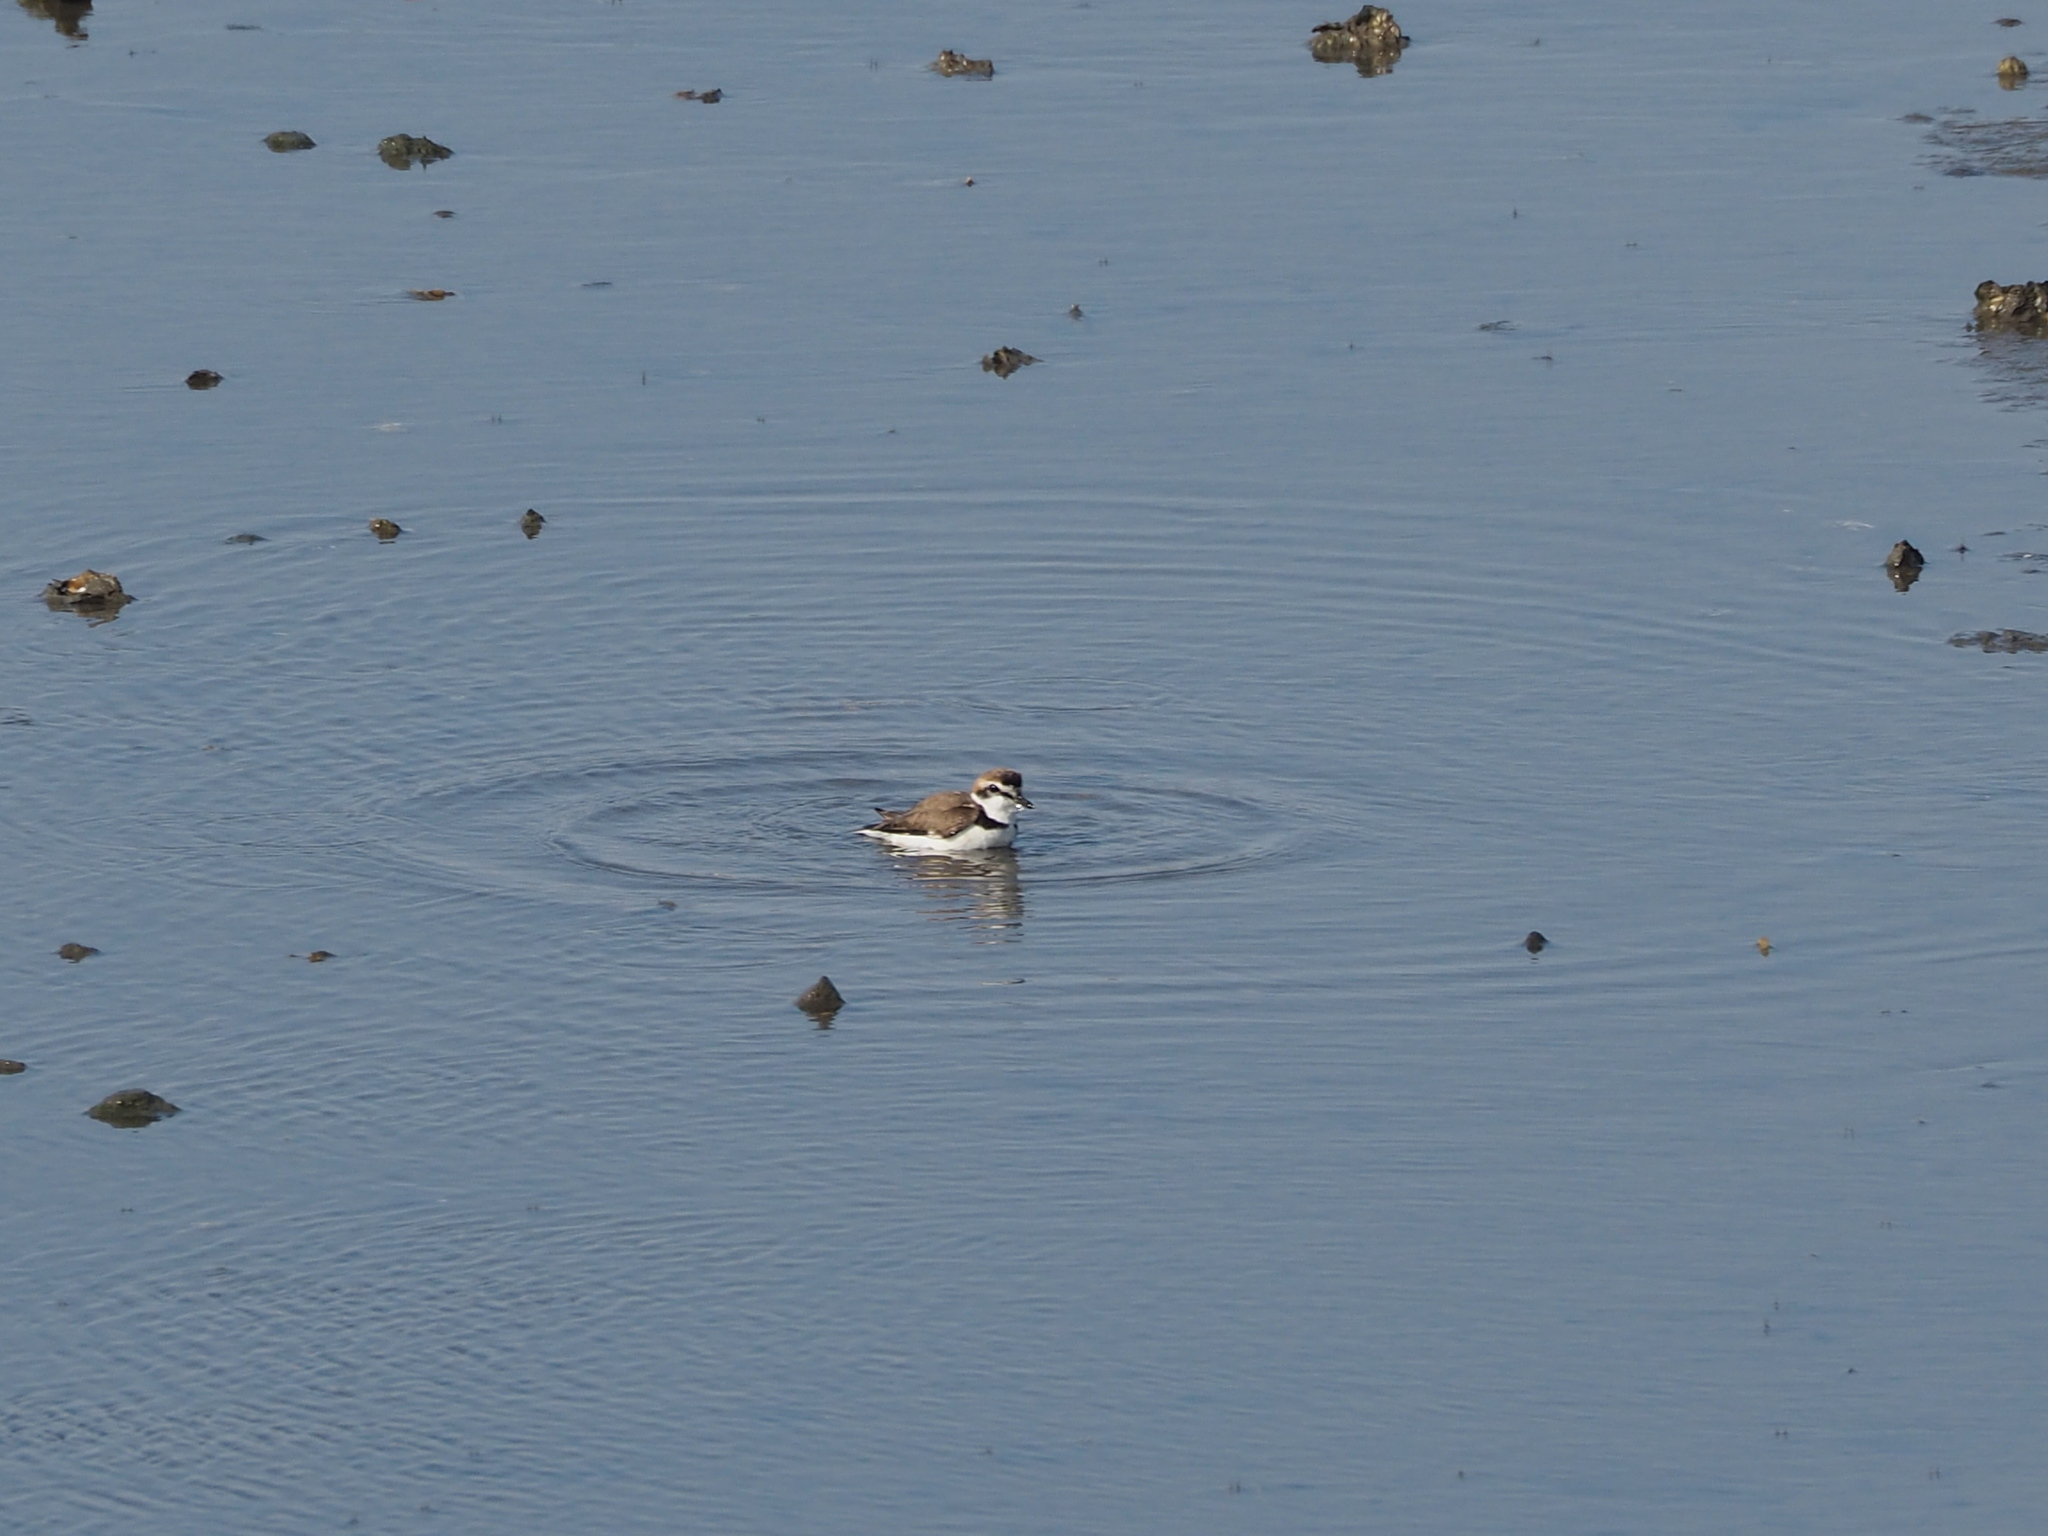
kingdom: Animalia
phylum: Chordata
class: Aves
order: Charadriiformes
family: Charadriidae
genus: Charadrius
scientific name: Charadrius alexandrinus
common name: Kentish plover
